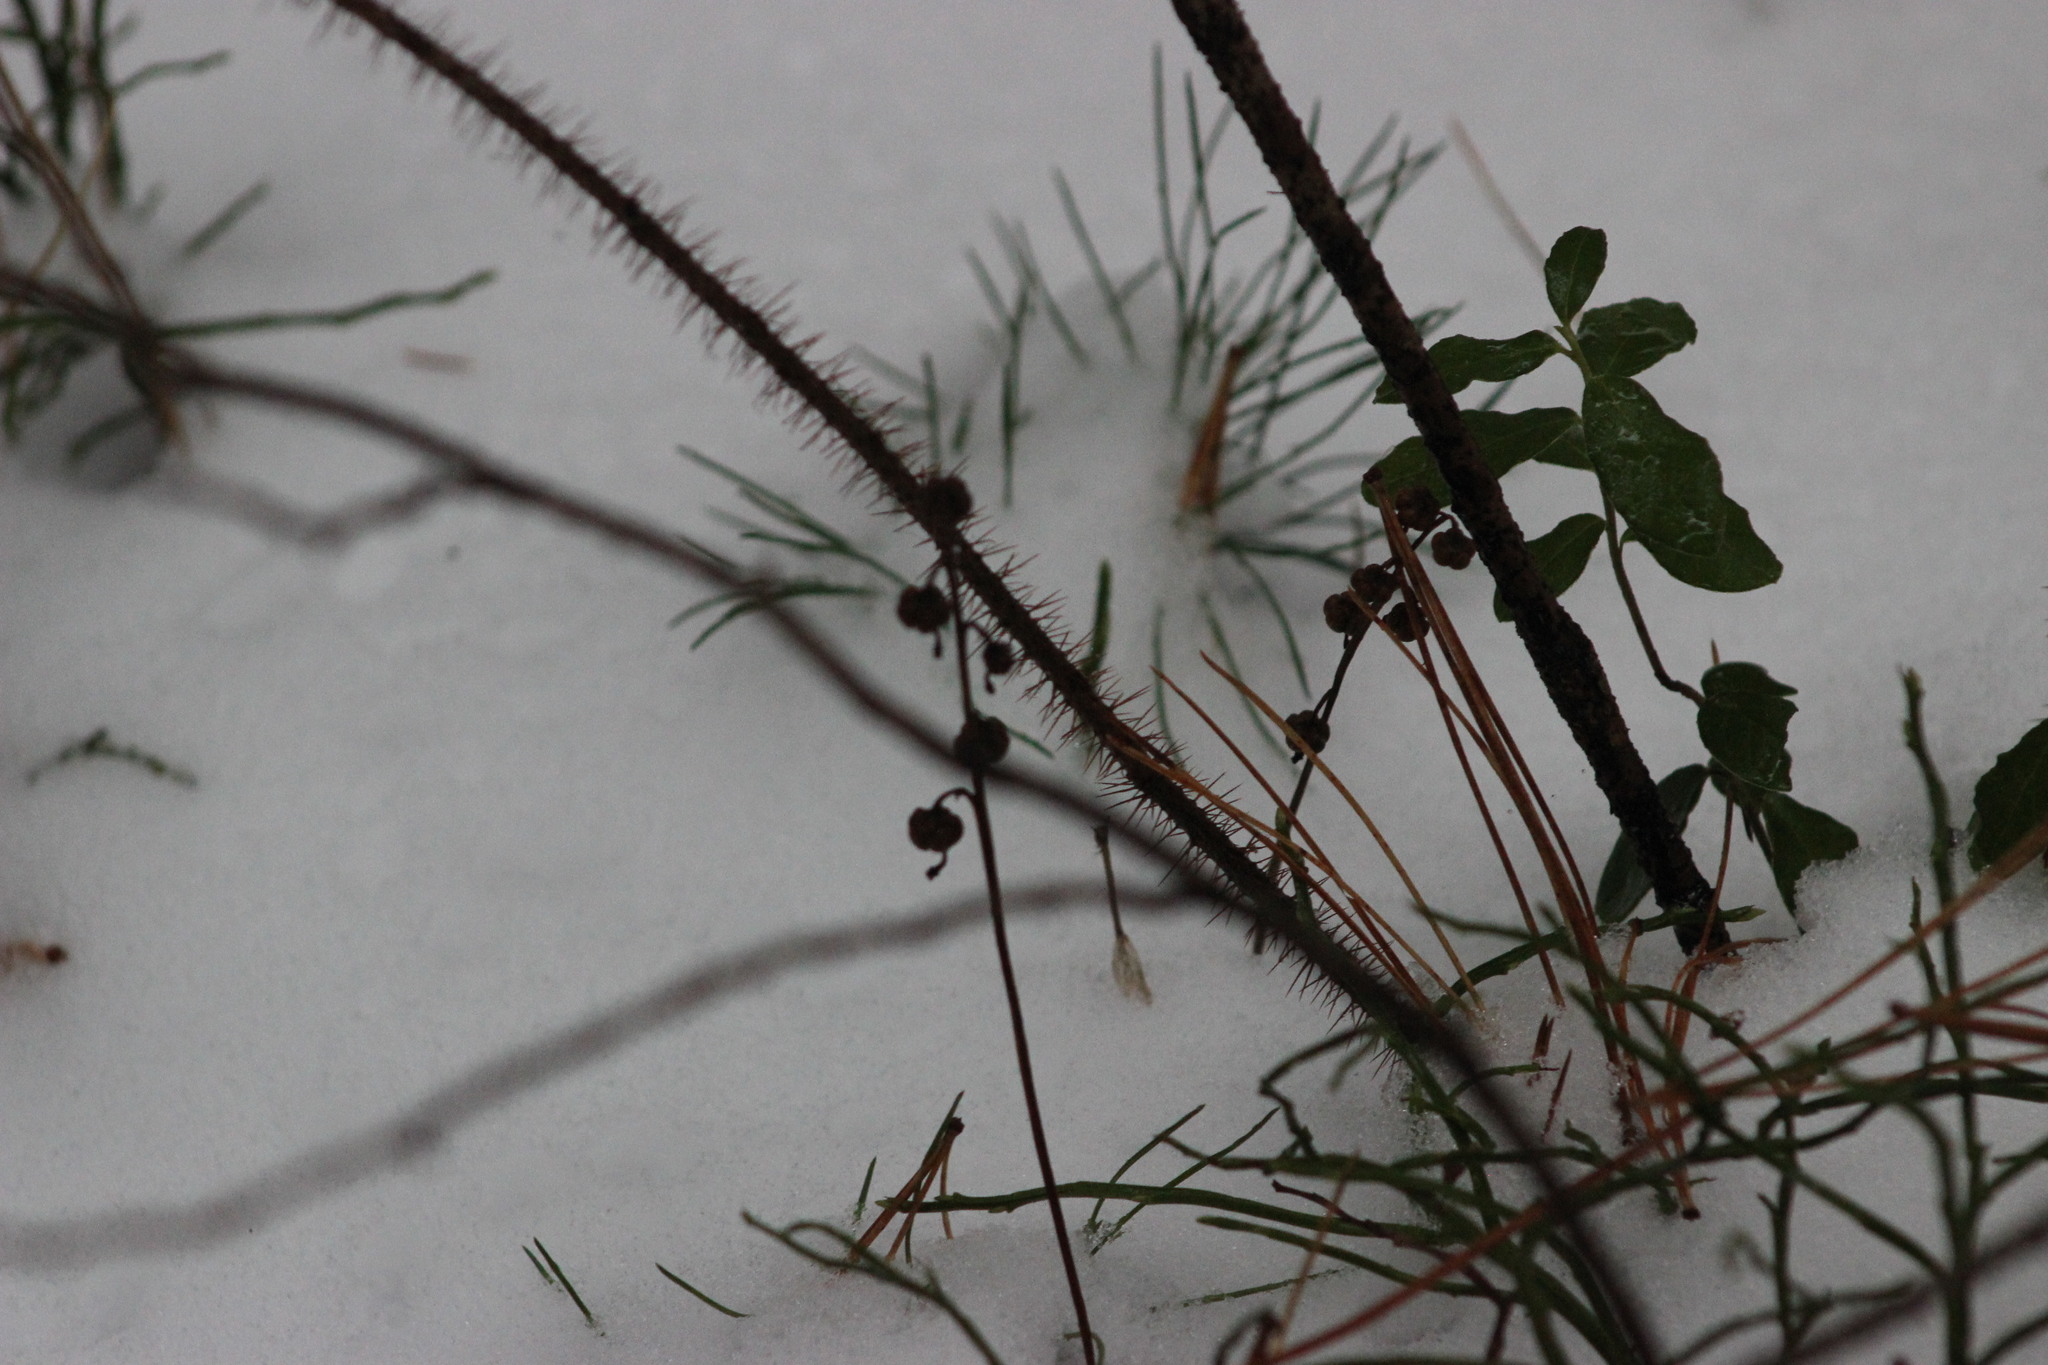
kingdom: Plantae
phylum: Tracheophyta
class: Magnoliopsida
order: Ericales
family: Ericaceae
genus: Pyrola
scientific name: Pyrola rotundifolia
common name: Round-leaved wintergreen
